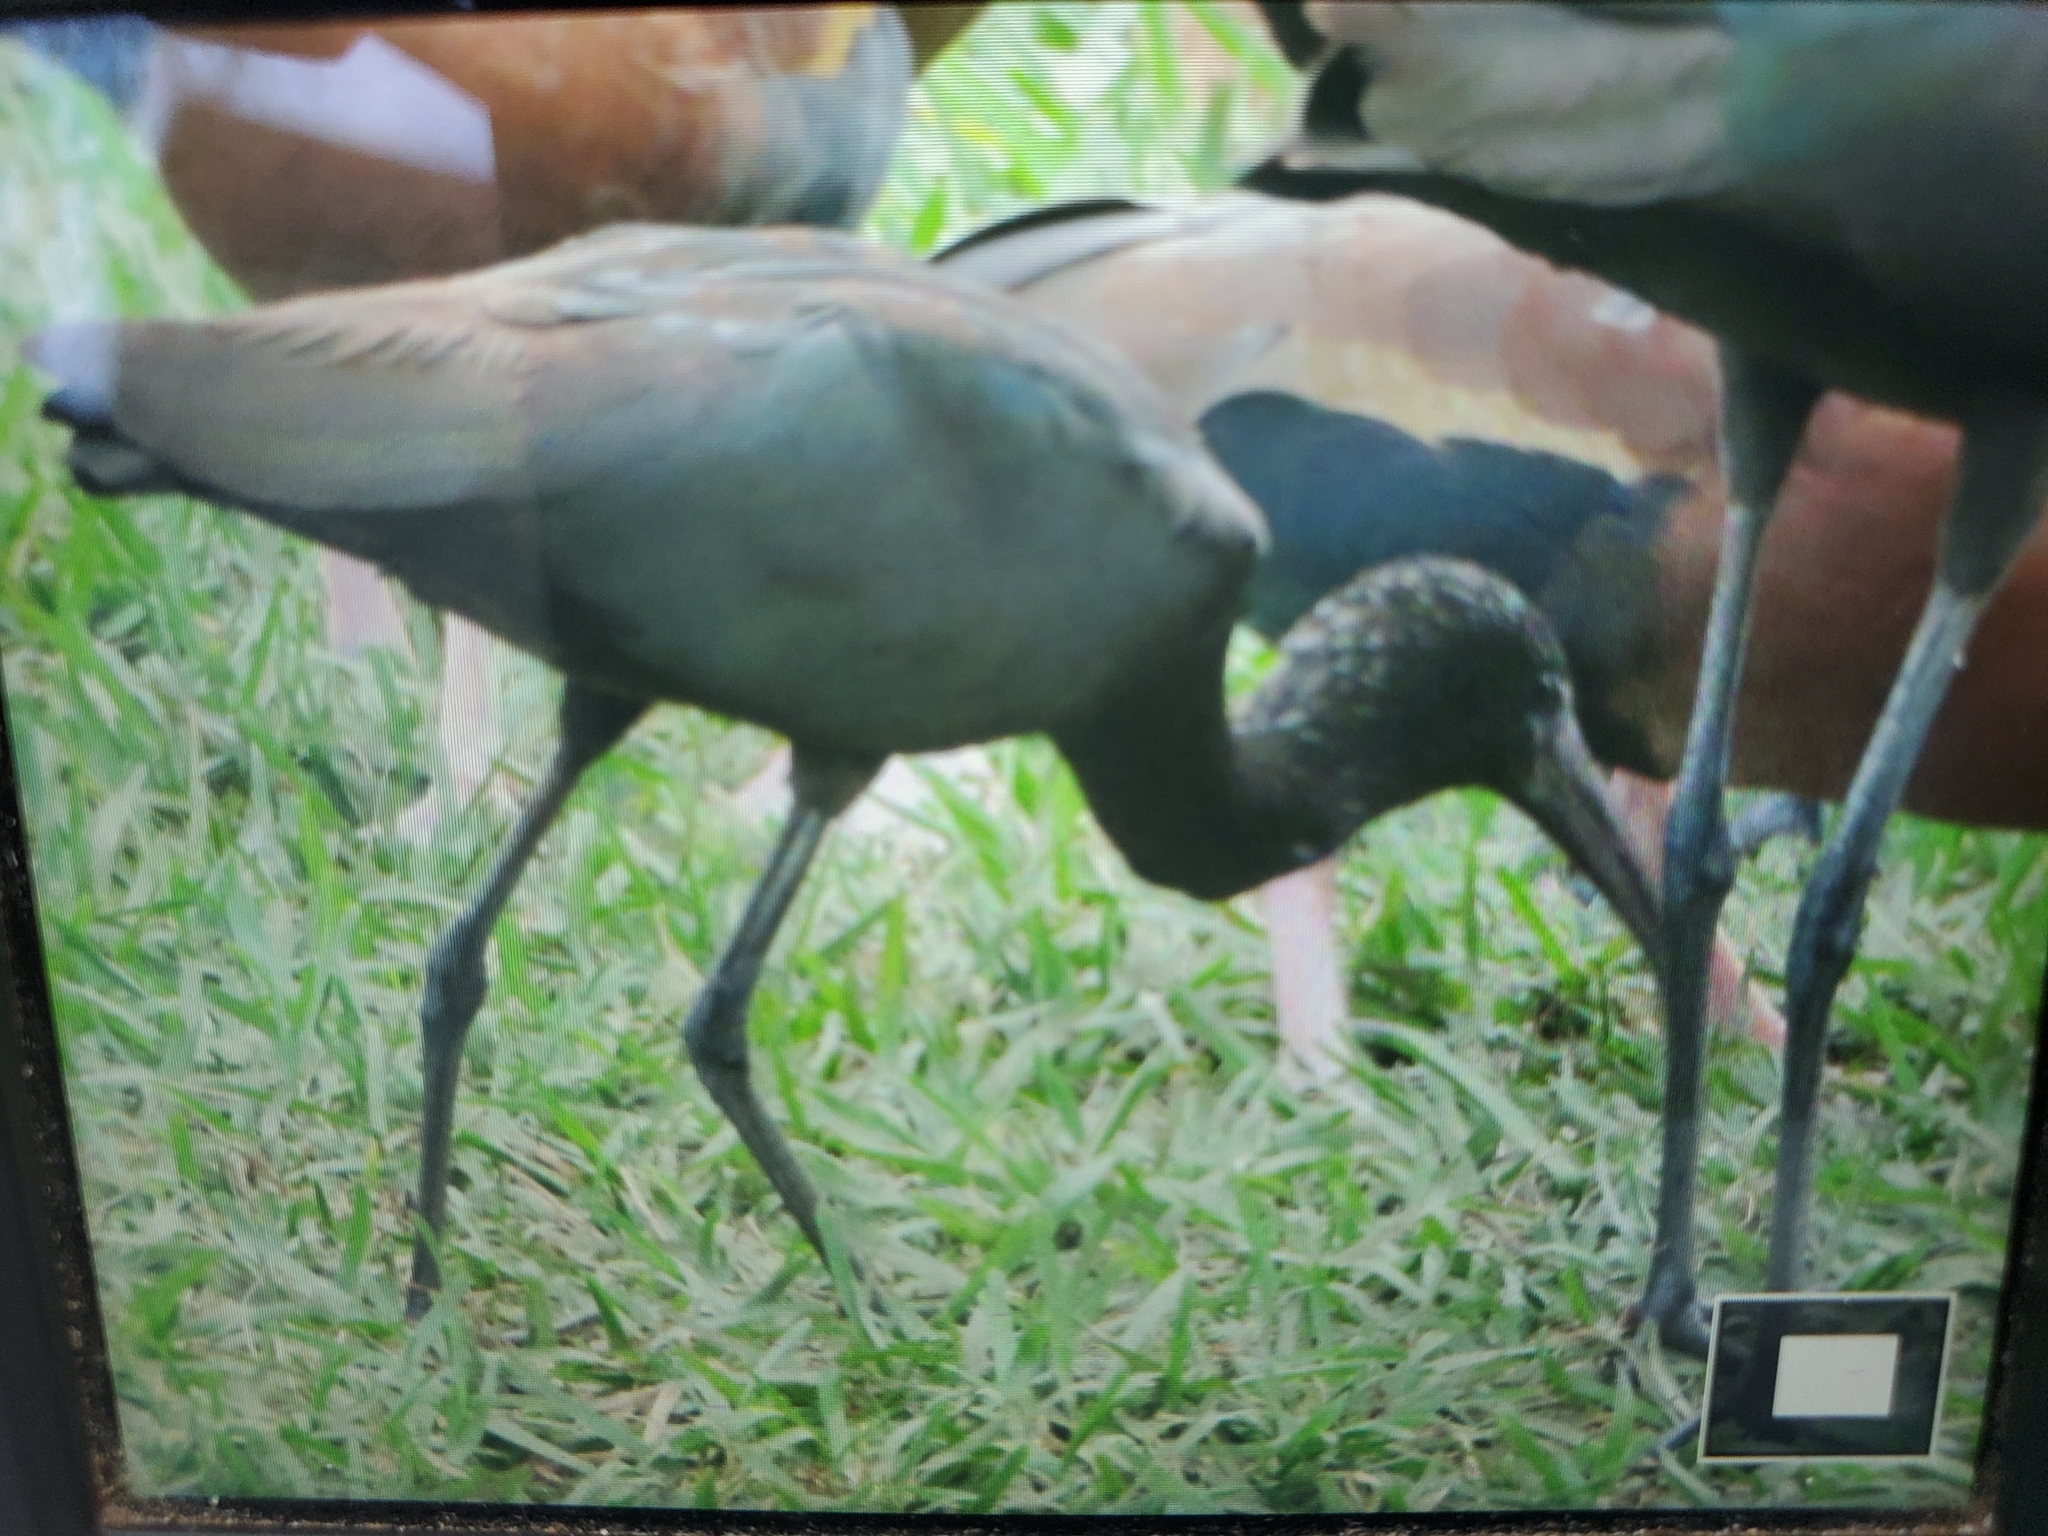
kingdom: Animalia
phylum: Chordata
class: Aves
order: Pelecaniformes
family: Threskiornithidae
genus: Plegadis
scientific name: Plegadis falcinellus
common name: Glossy ibis
